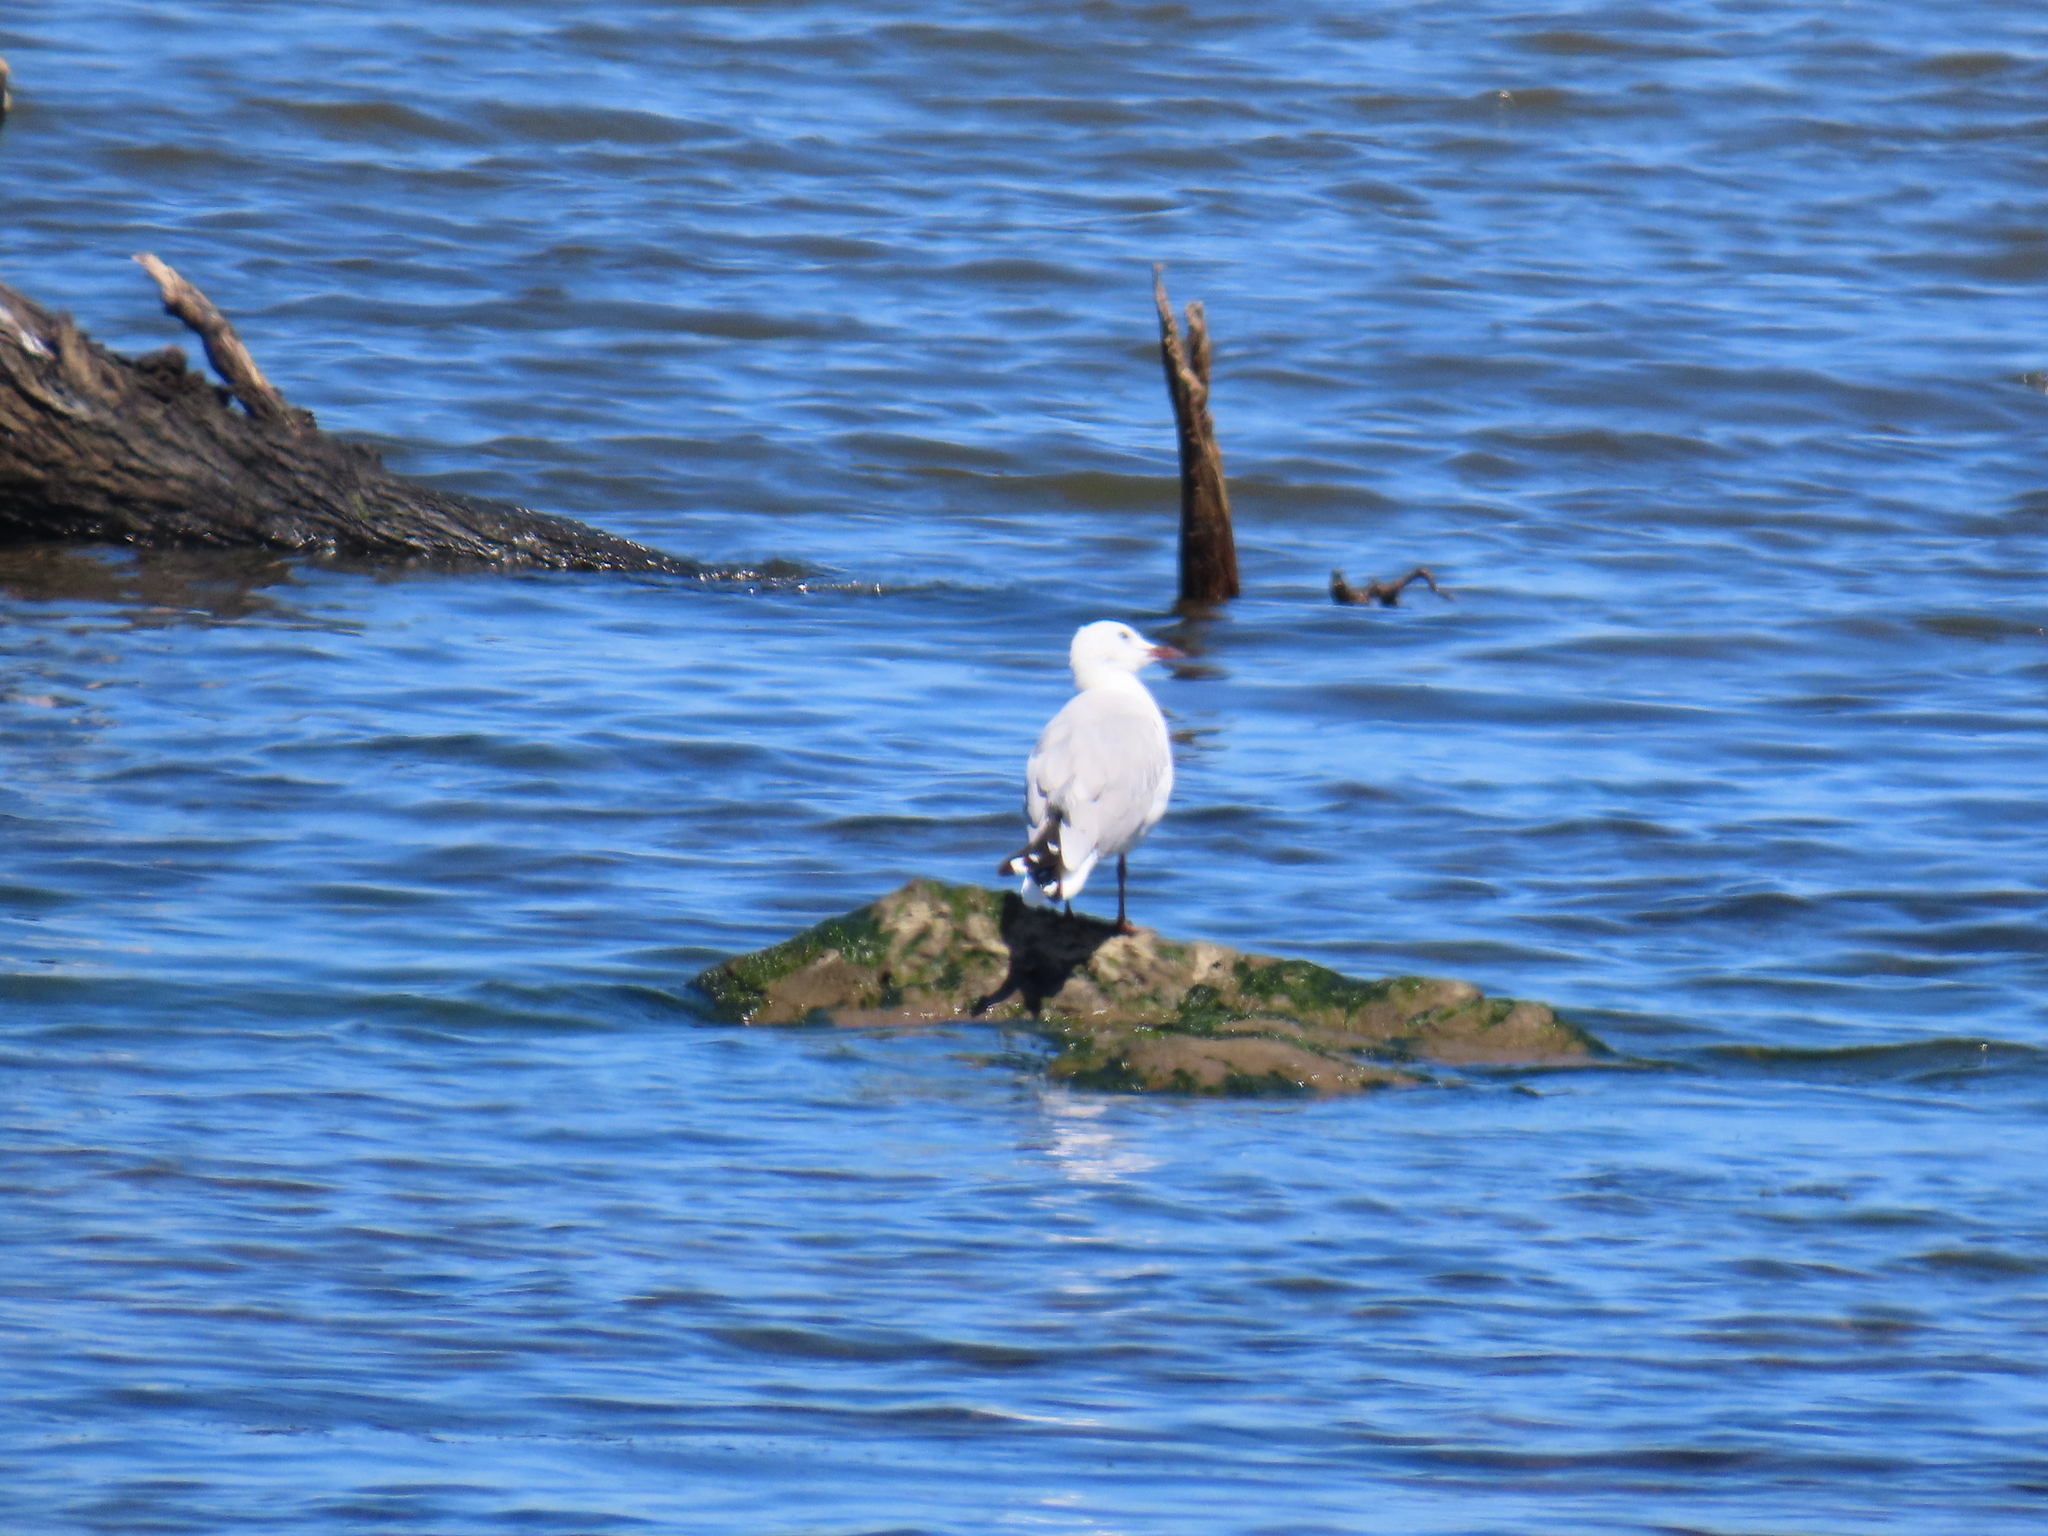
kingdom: Animalia
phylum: Chordata
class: Aves
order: Charadriiformes
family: Laridae
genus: Chroicocephalus
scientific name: Chroicocephalus hartlaubii
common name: Hartlaub's gull
